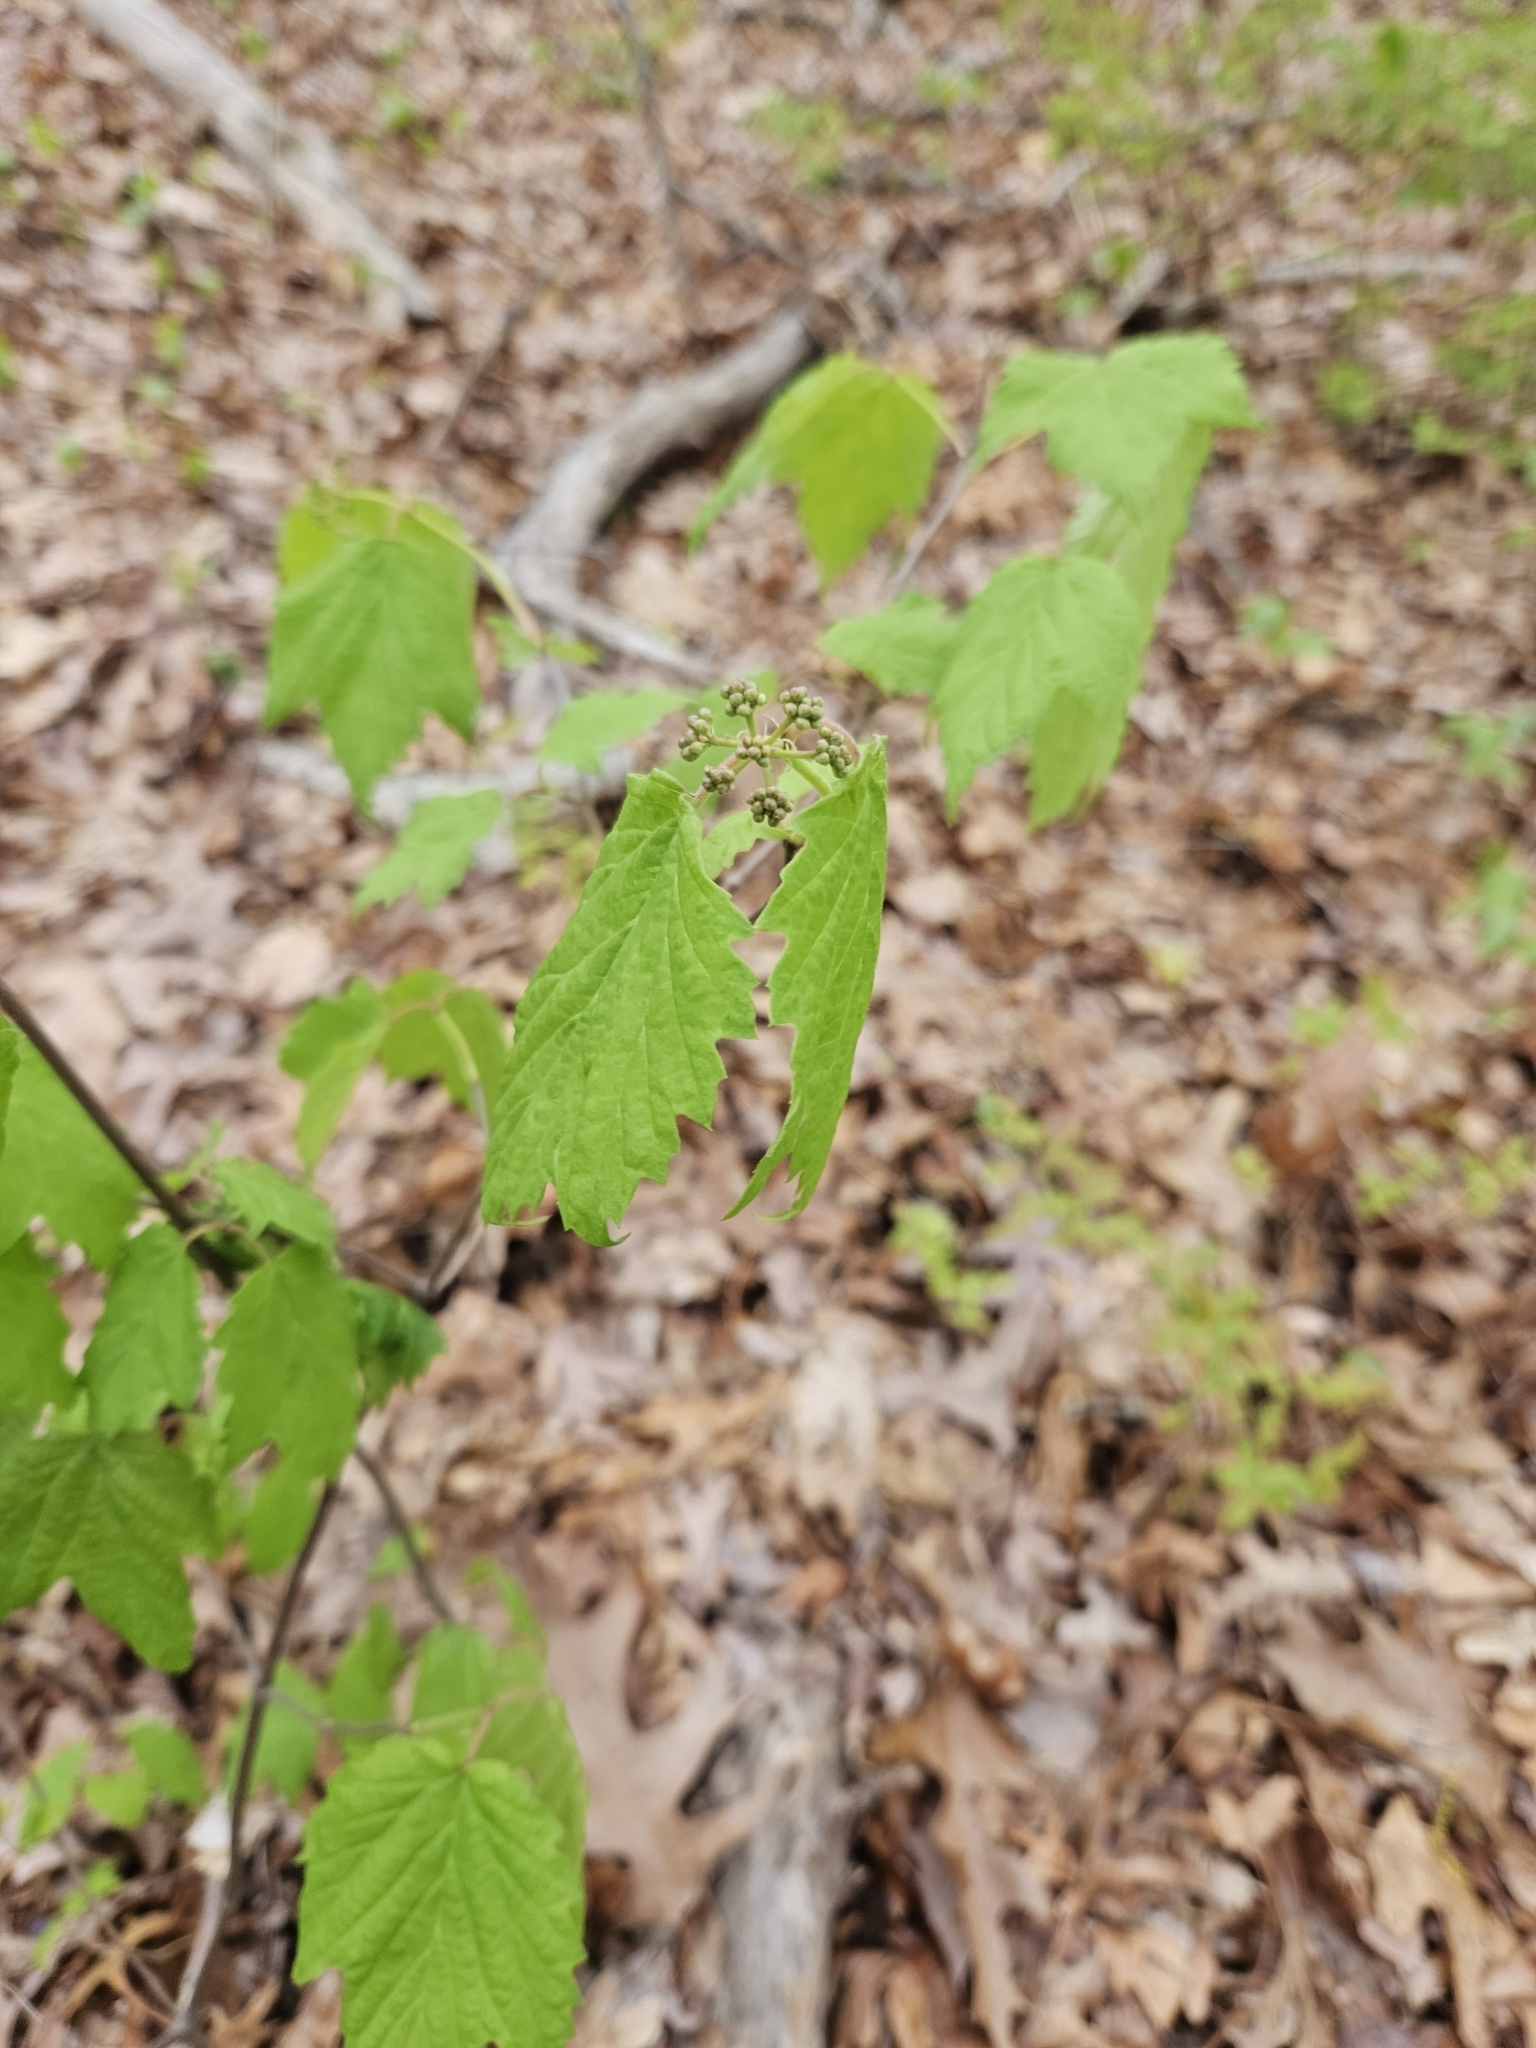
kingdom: Plantae
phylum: Tracheophyta
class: Magnoliopsida
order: Dipsacales
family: Viburnaceae
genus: Viburnum
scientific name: Viburnum acerifolium
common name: Dockmackie
